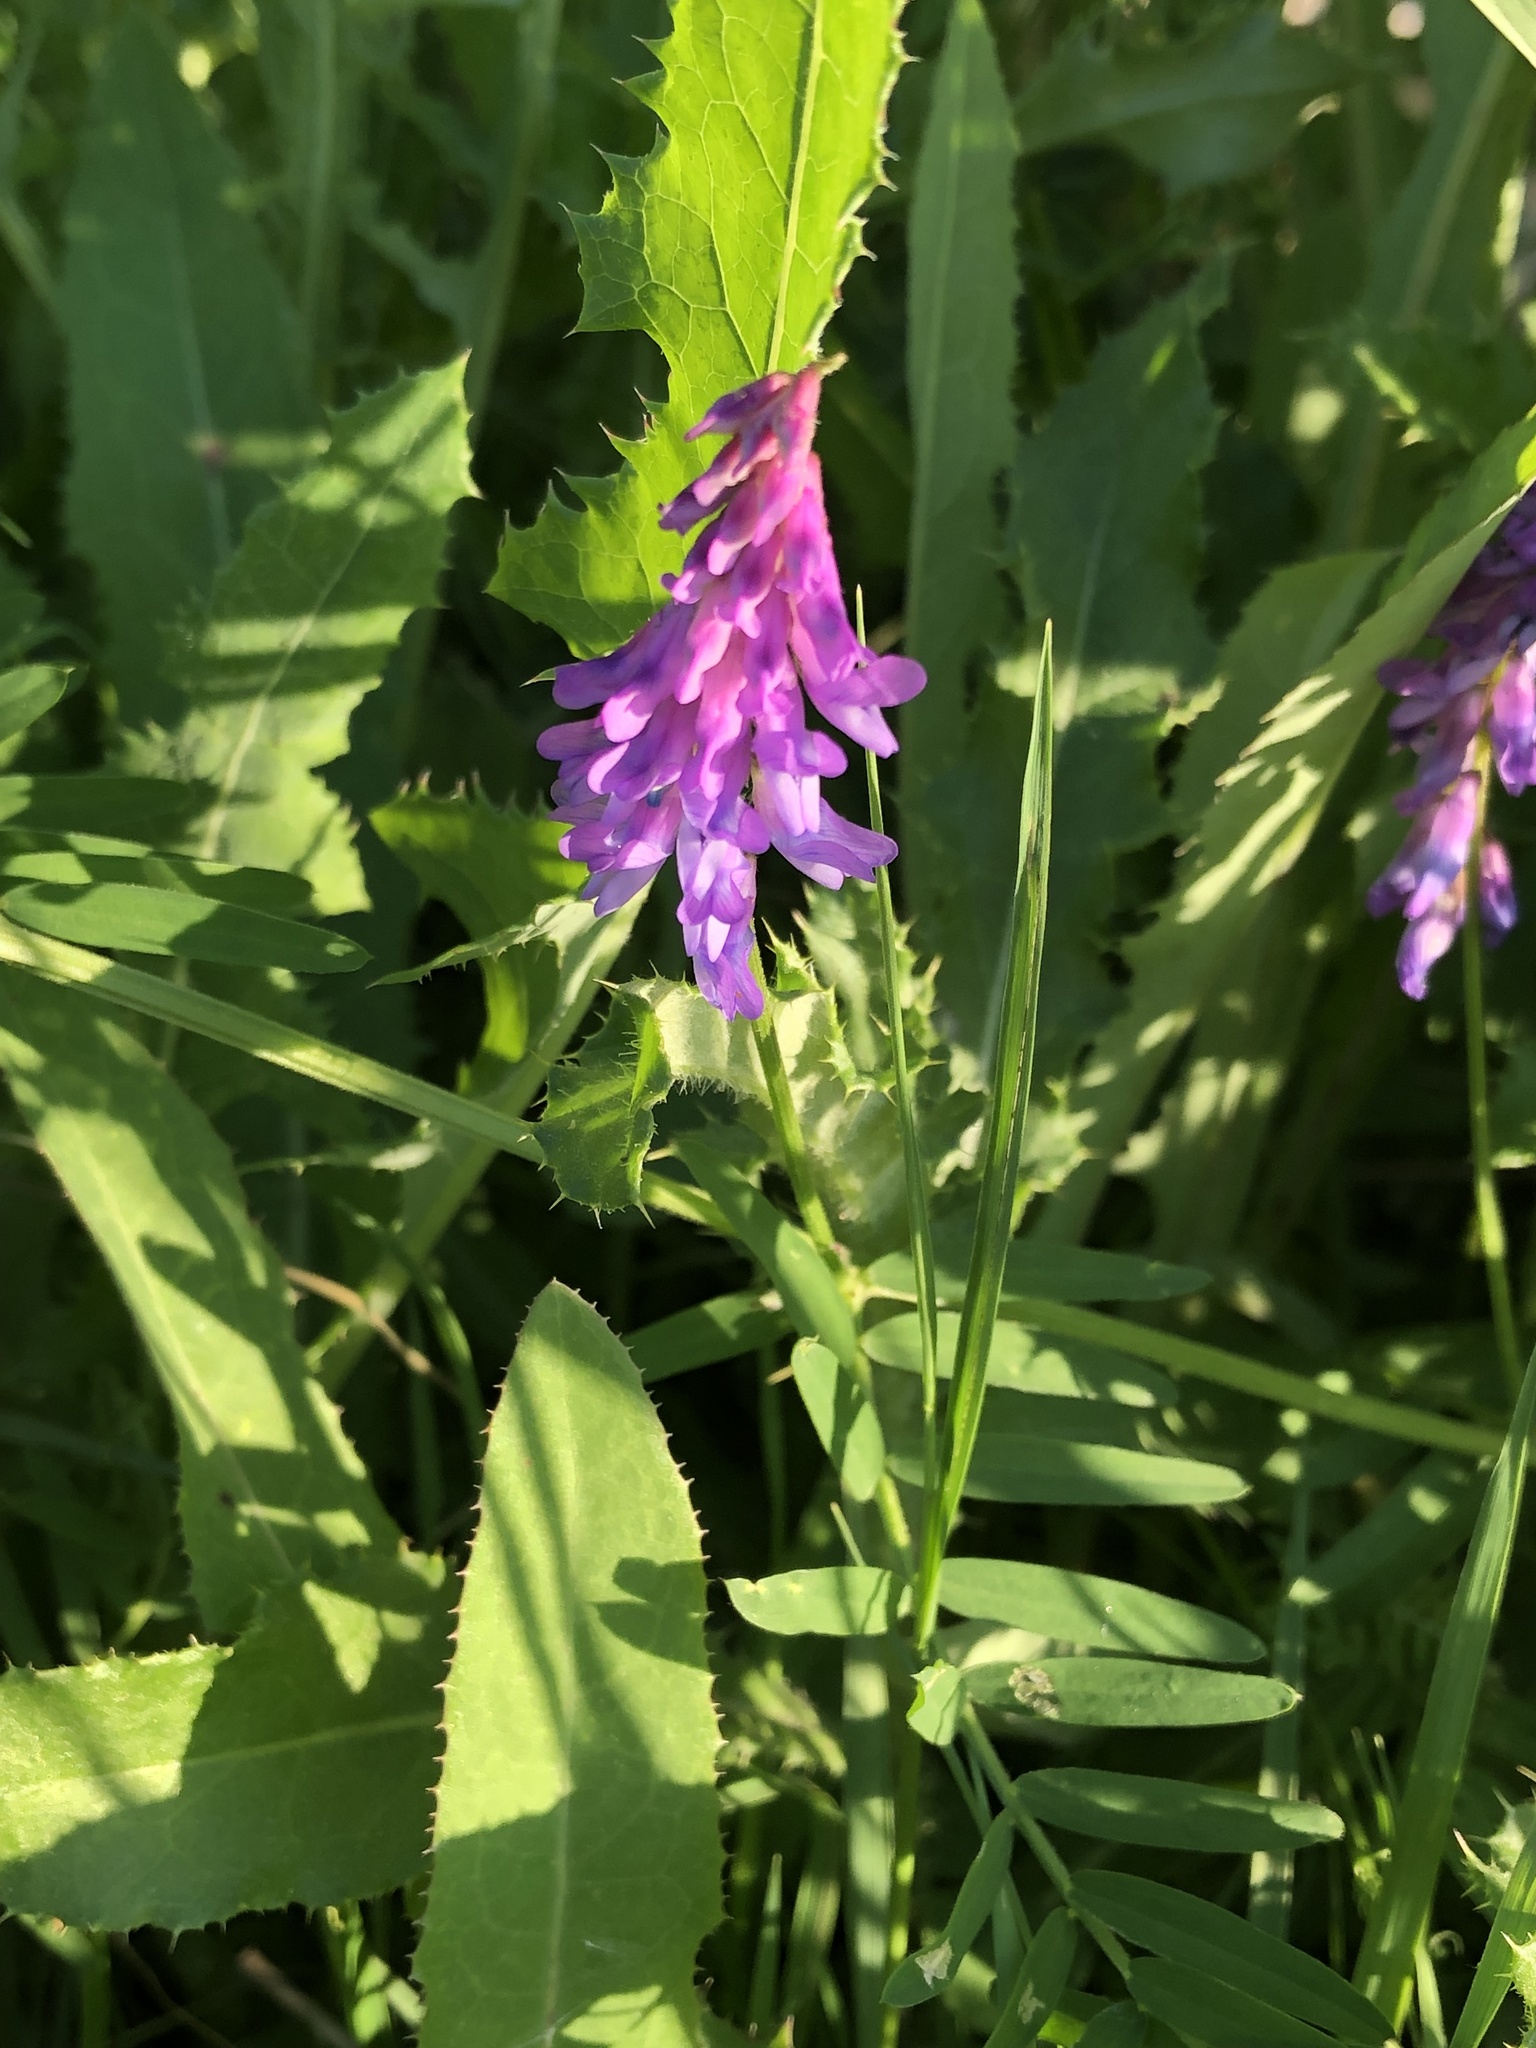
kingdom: Plantae
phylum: Tracheophyta
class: Magnoliopsida
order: Fabales
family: Fabaceae
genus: Vicia
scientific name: Vicia cracca
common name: Bird vetch
